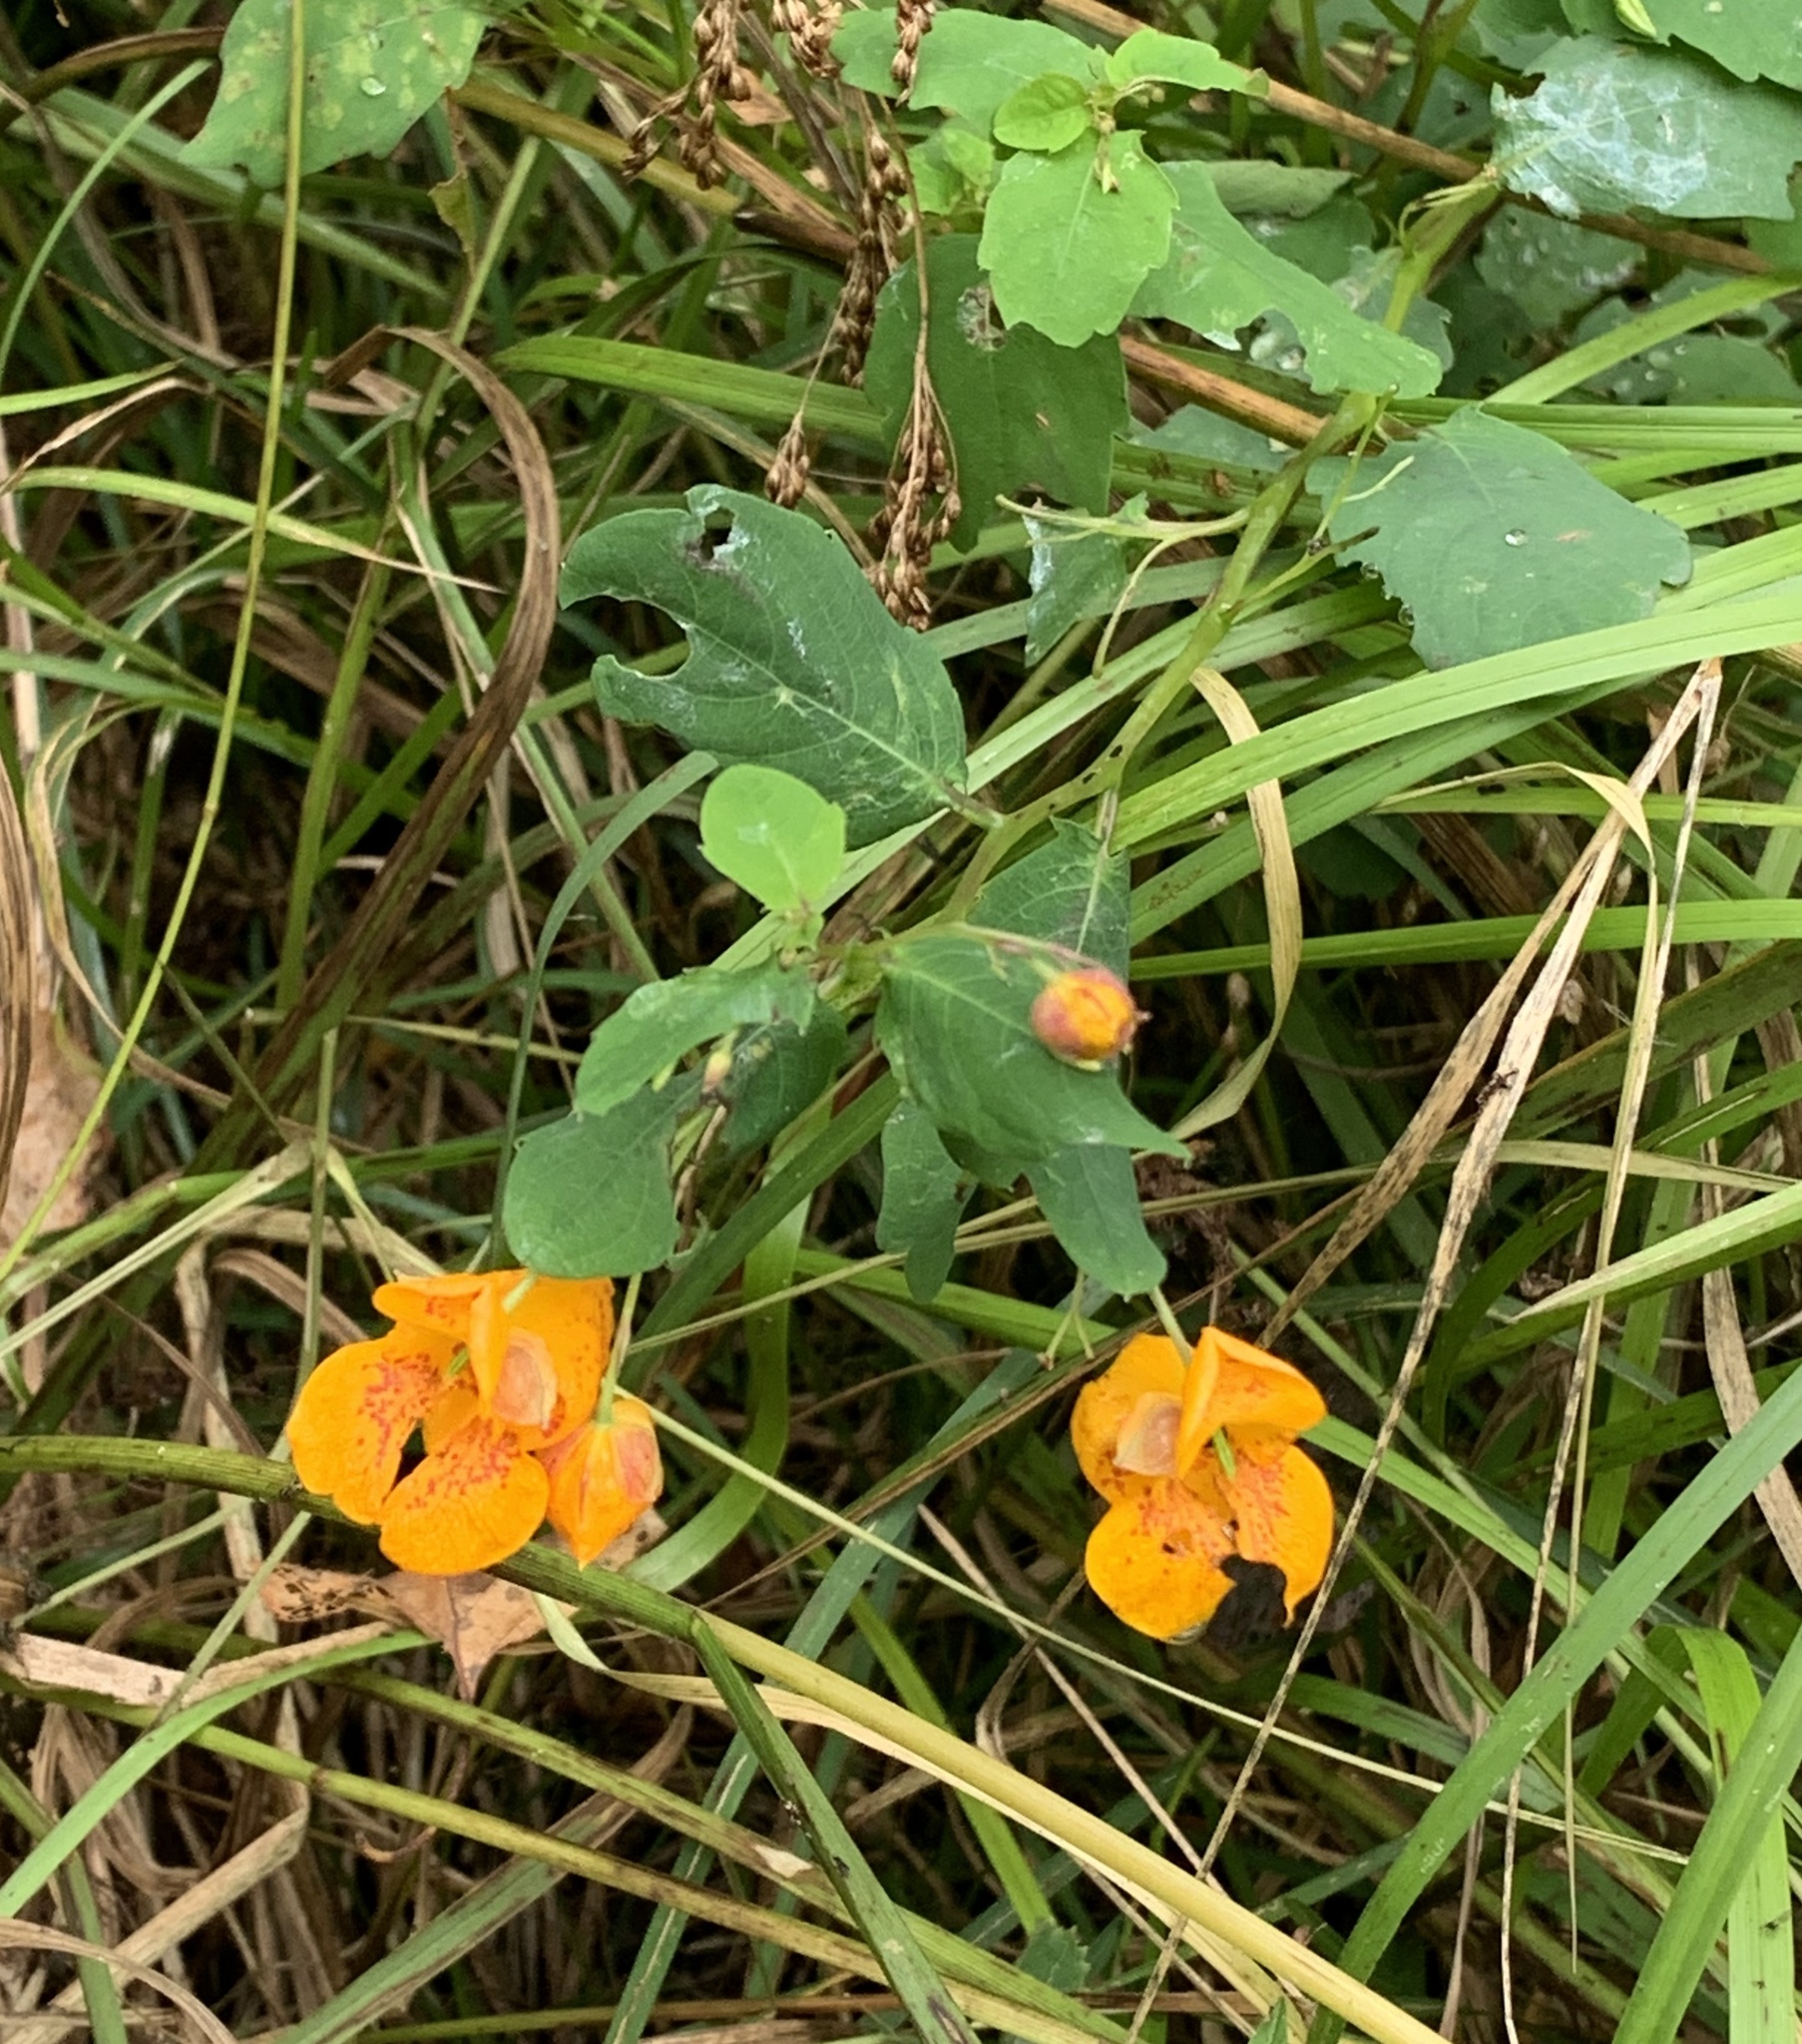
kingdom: Plantae
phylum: Tracheophyta
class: Magnoliopsida
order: Ericales
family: Balsaminaceae
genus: Impatiens
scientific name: Impatiens capensis
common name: Orange balsam
